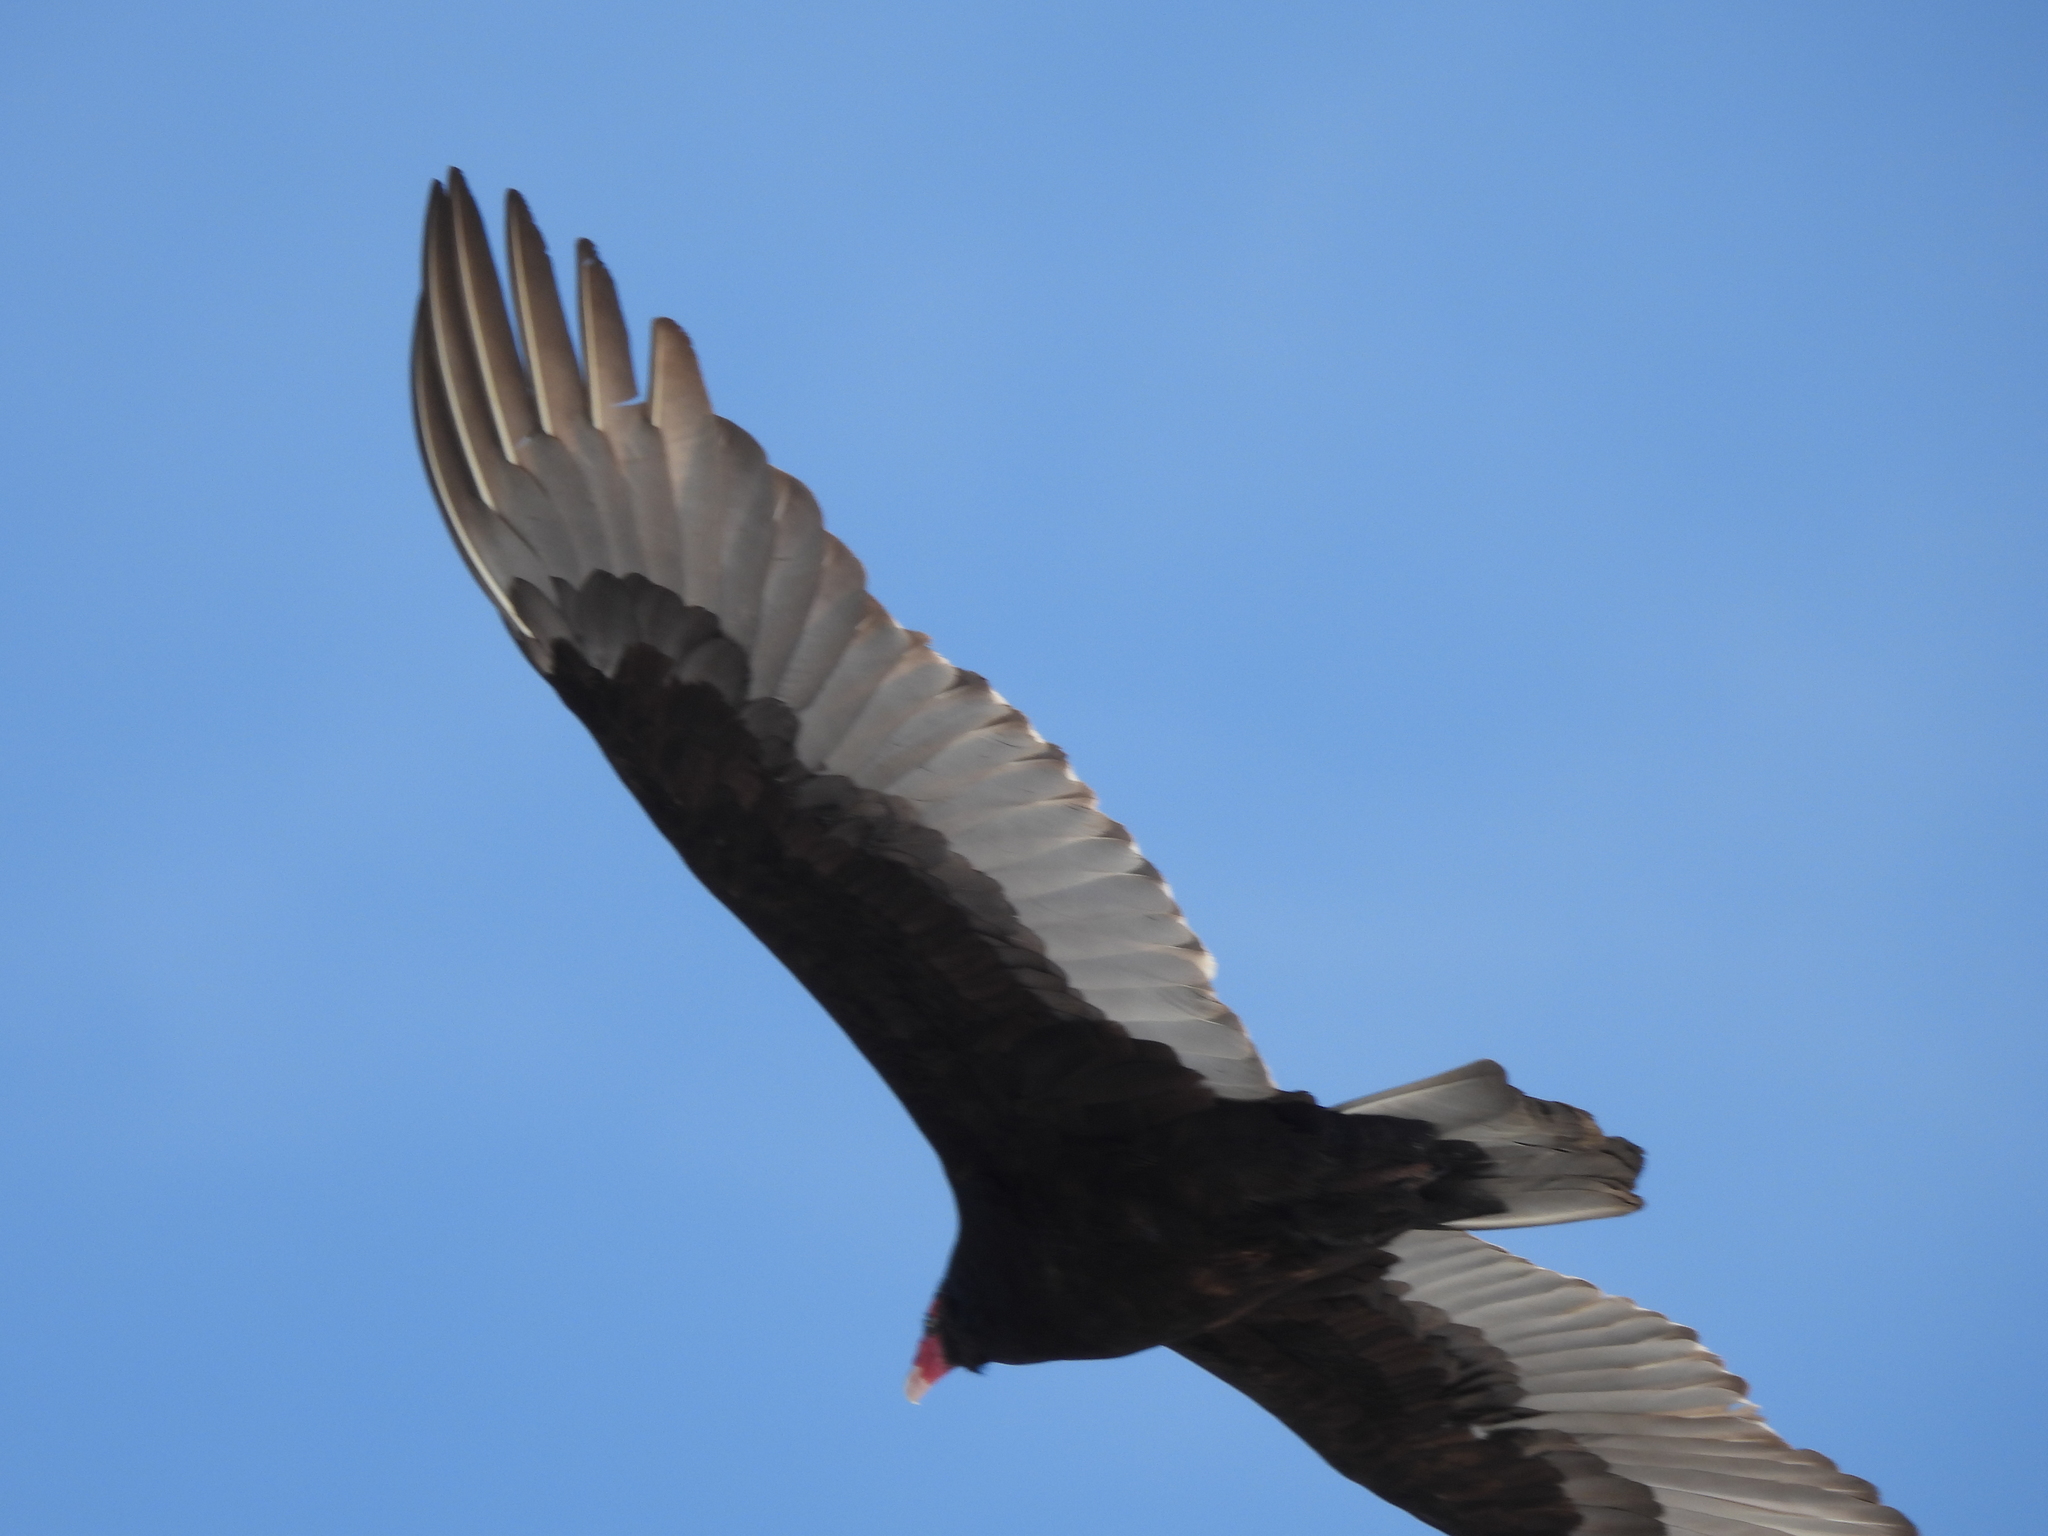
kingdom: Animalia
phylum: Chordata
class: Aves
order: Accipitriformes
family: Cathartidae
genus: Cathartes
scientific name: Cathartes aura
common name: Turkey vulture
